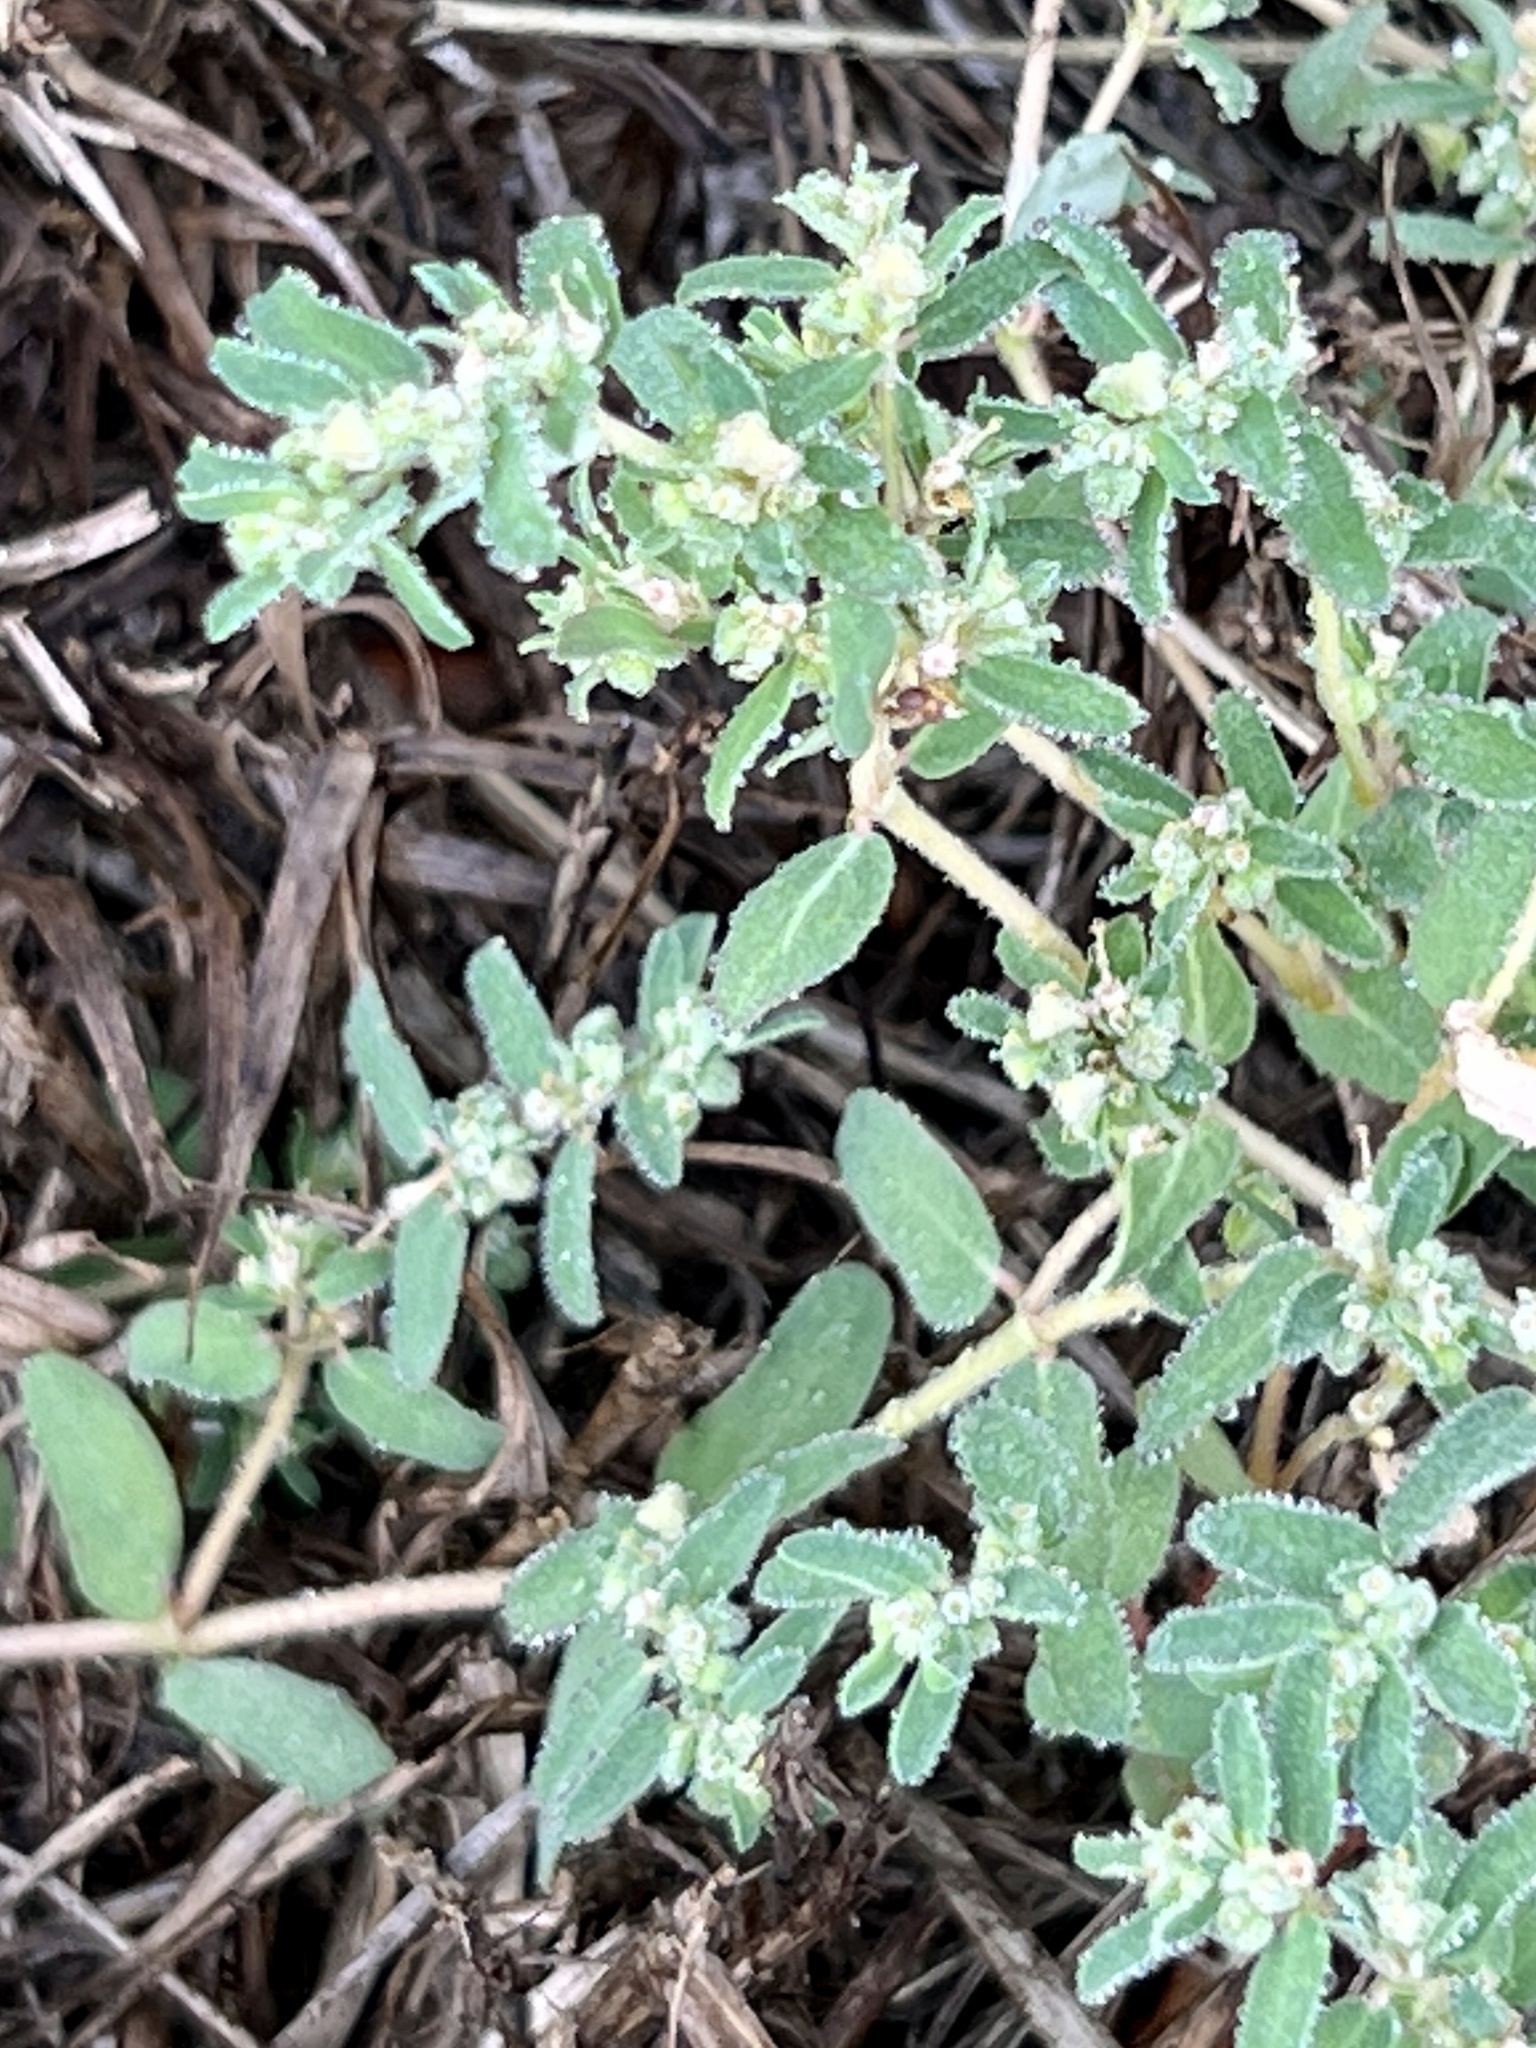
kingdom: Plantae
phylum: Tracheophyta
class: Magnoliopsida
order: Malpighiales
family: Euphorbiaceae
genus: Euphorbia
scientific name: Euphorbia maculata
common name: Spotted spurge
